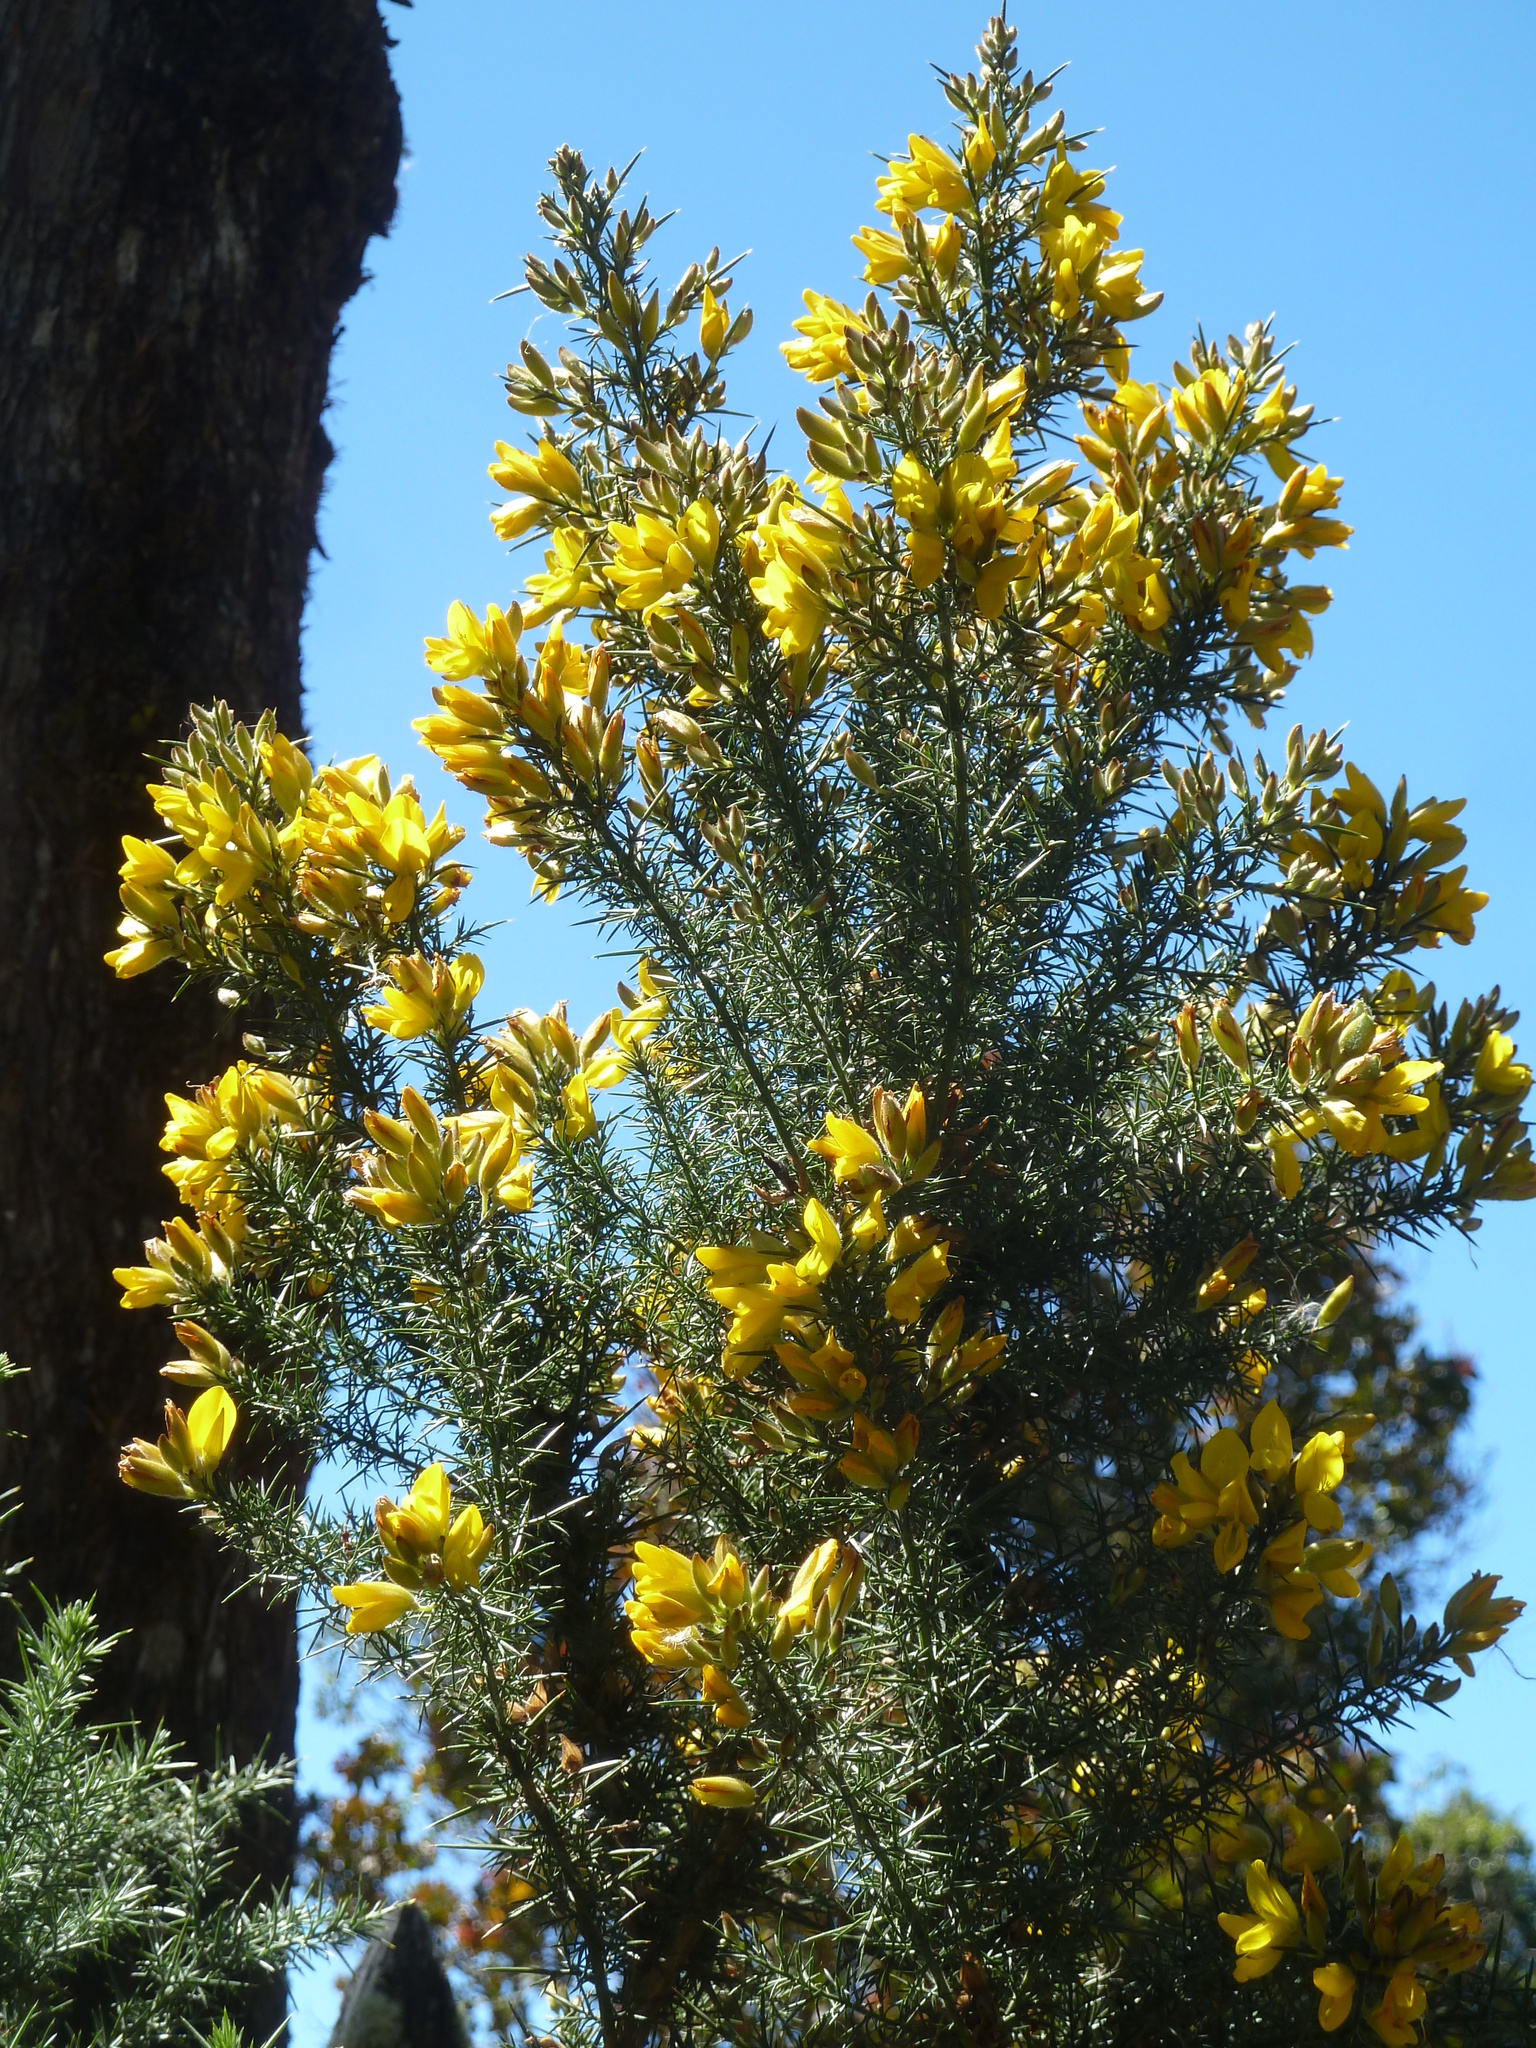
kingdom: Plantae
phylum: Tracheophyta
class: Magnoliopsida
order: Fabales
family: Fabaceae
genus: Ulex
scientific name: Ulex europaeus
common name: Common gorse
